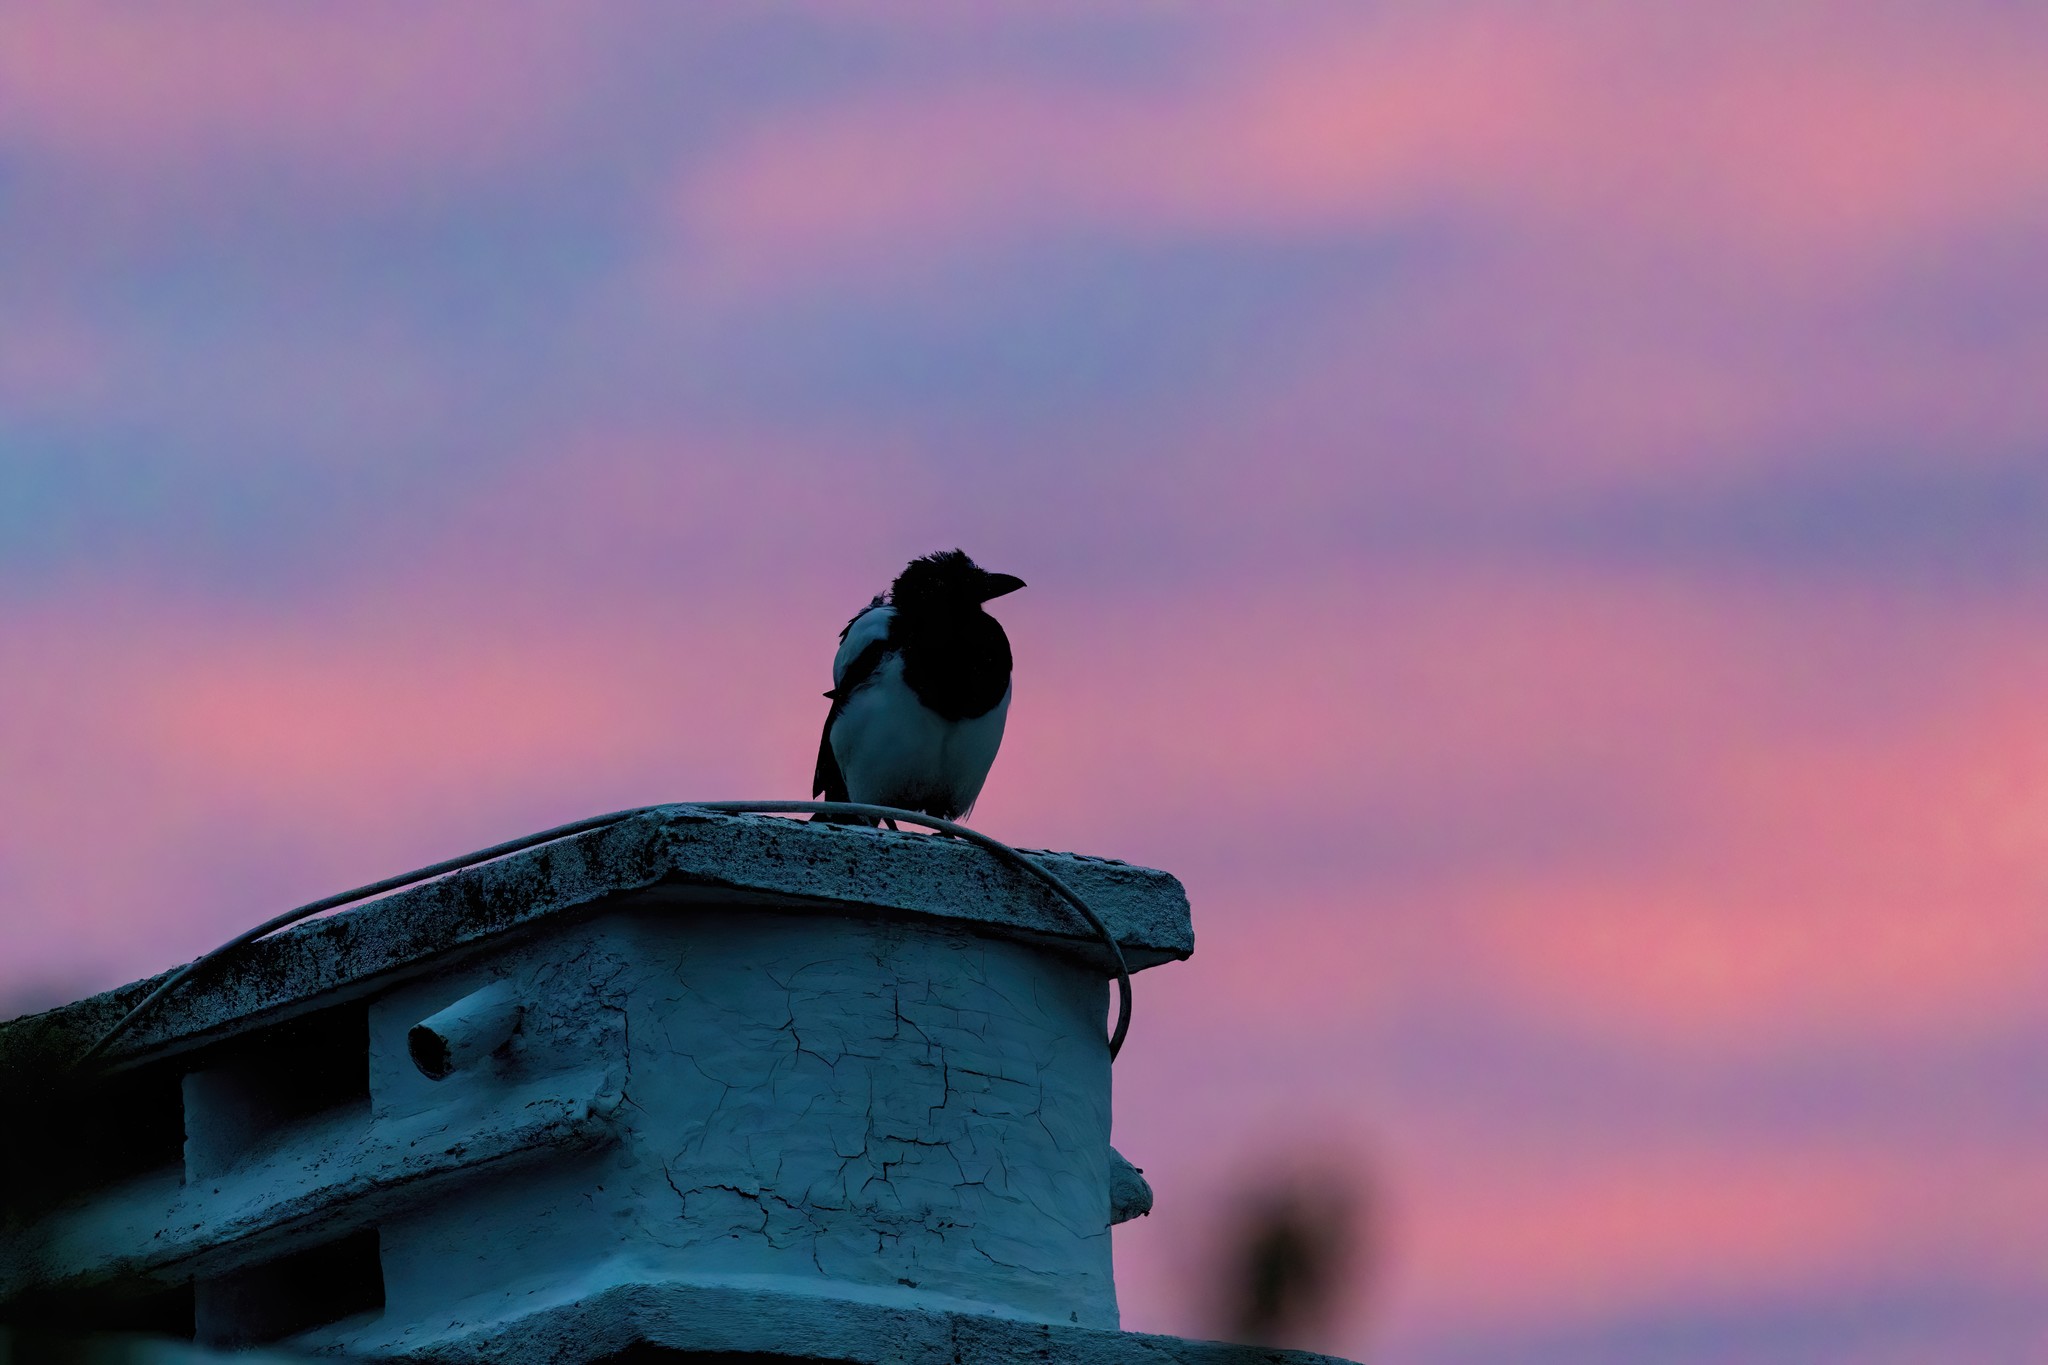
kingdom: Animalia
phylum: Chordata
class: Aves
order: Passeriformes
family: Corvidae
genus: Pica
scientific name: Pica pica
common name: Eurasian magpie
